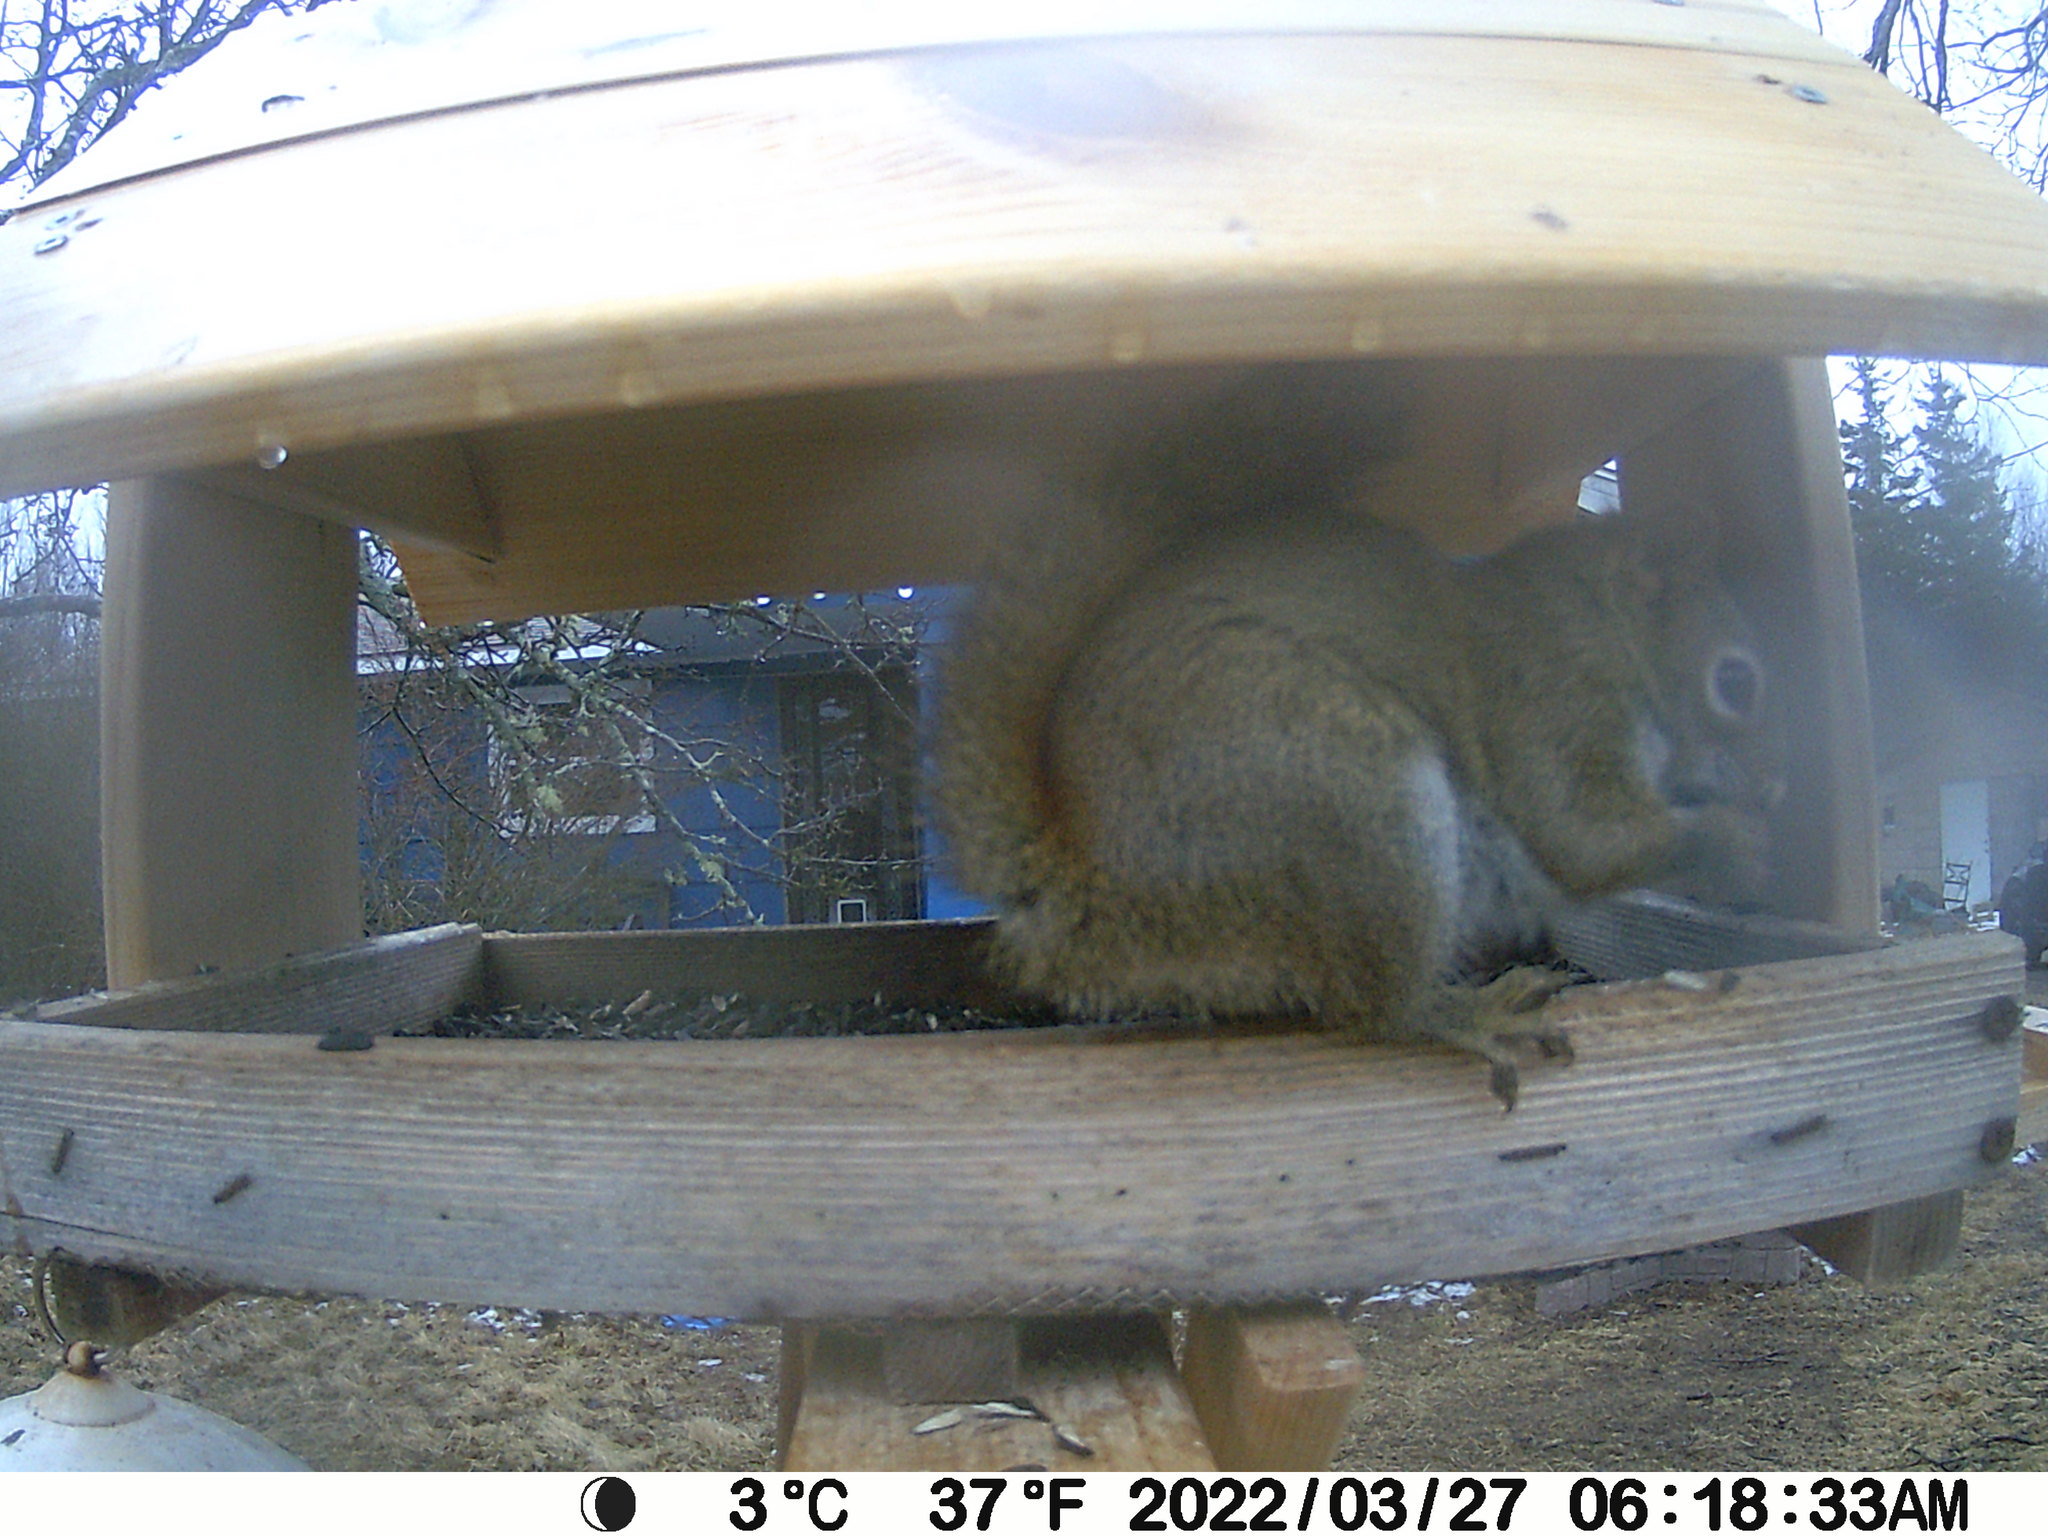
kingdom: Animalia
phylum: Chordata
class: Mammalia
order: Rodentia
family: Sciuridae
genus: Tamiasciurus
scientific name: Tamiasciurus hudsonicus
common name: Red squirrel
